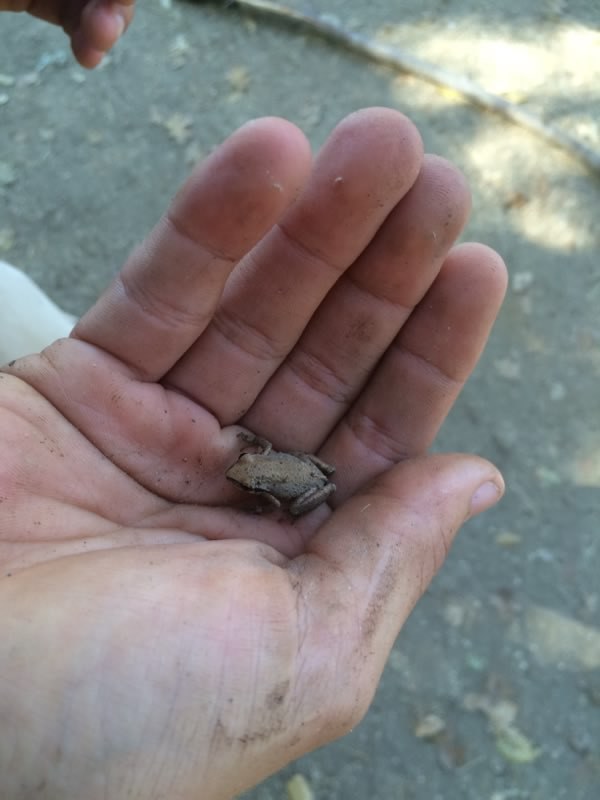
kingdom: Animalia
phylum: Chordata
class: Amphibia
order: Anura
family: Hylidae
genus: Pseudacris
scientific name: Pseudacris regilla
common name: Pacific chorus frog
